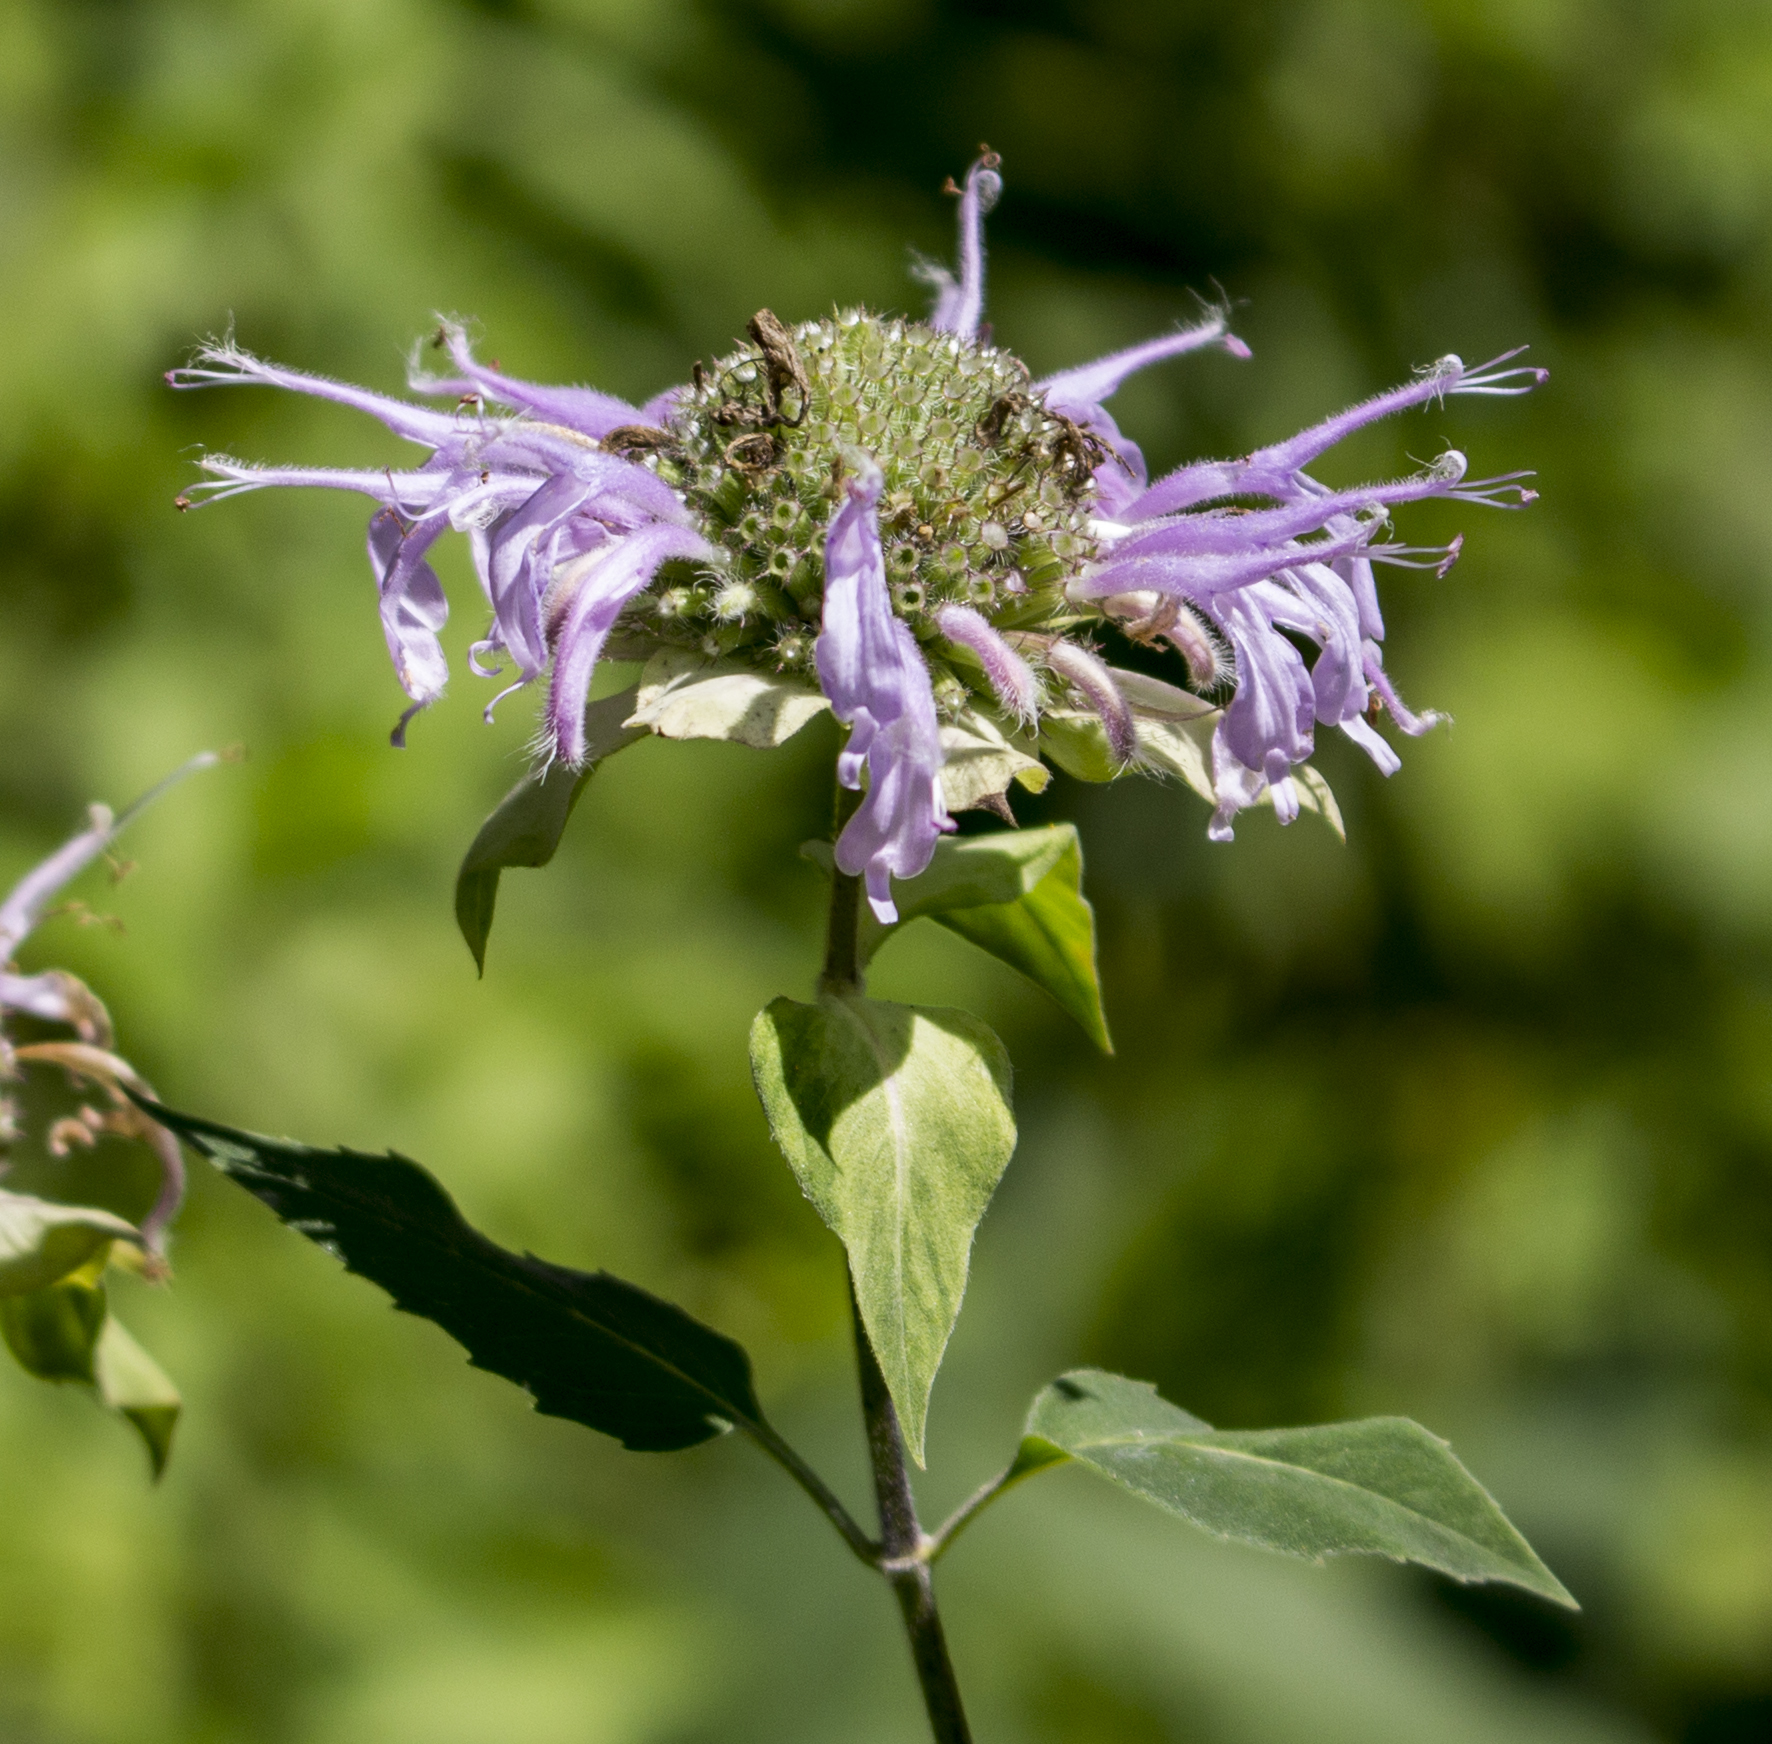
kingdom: Plantae
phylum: Tracheophyta
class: Magnoliopsida
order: Lamiales
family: Lamiaceae
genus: Monarda
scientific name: Monarda fistulosa
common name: Purple beebalm
